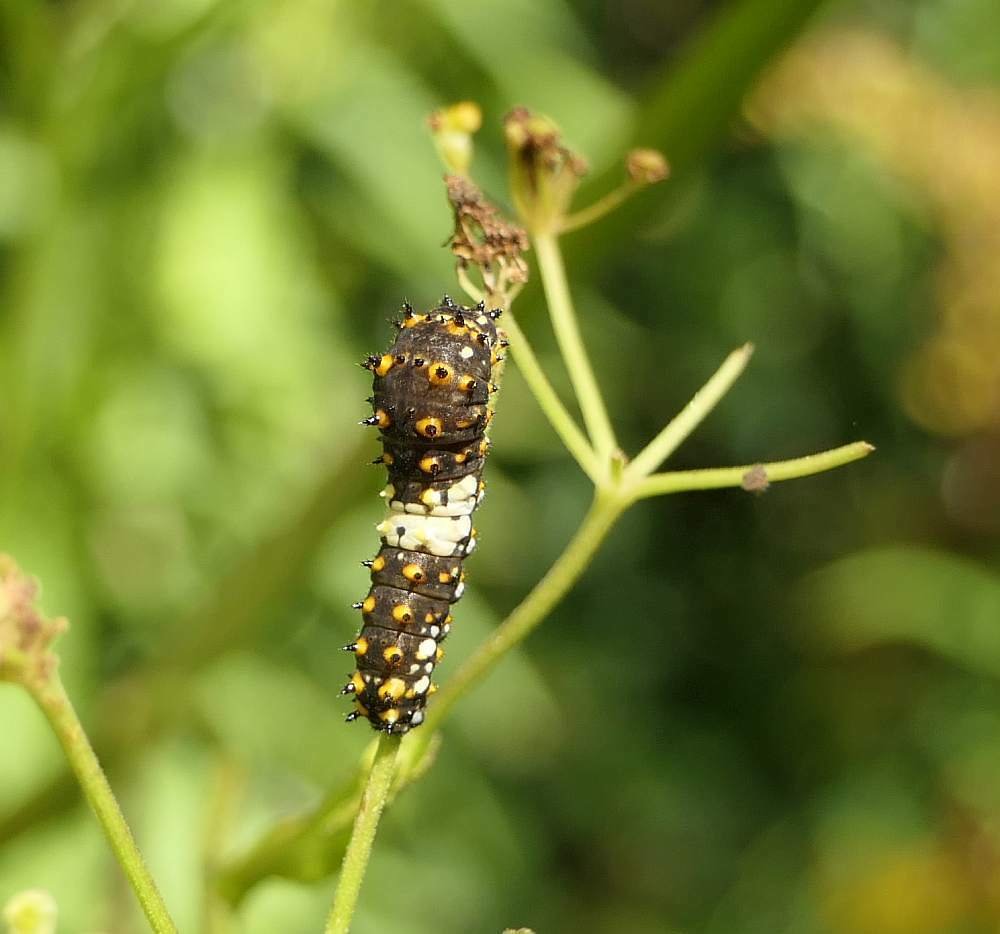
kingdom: Animalia
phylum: Arthropoda
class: Insecta
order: Lepidoptera
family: Papilionidae
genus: Papilio
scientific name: Papilio polyxenes
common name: Black swallowtail
